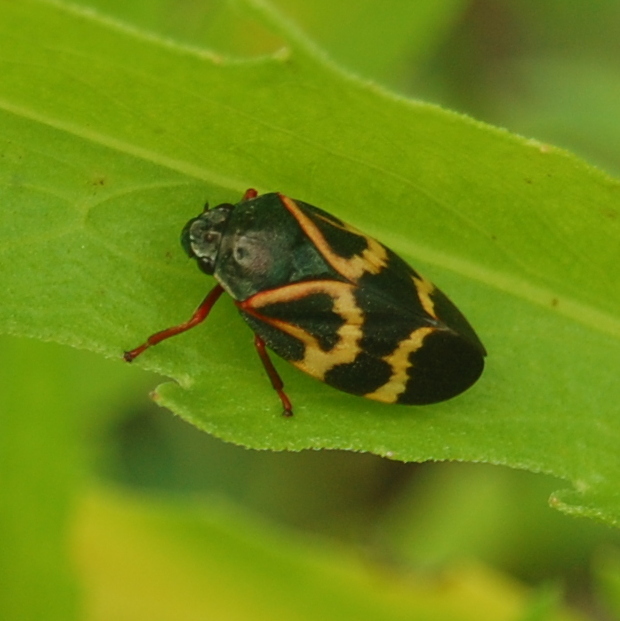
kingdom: Animalia
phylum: Arthropoda
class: Insecta
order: Hemiptera
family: Cercopidae
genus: Deois
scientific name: Deois flexuosa
